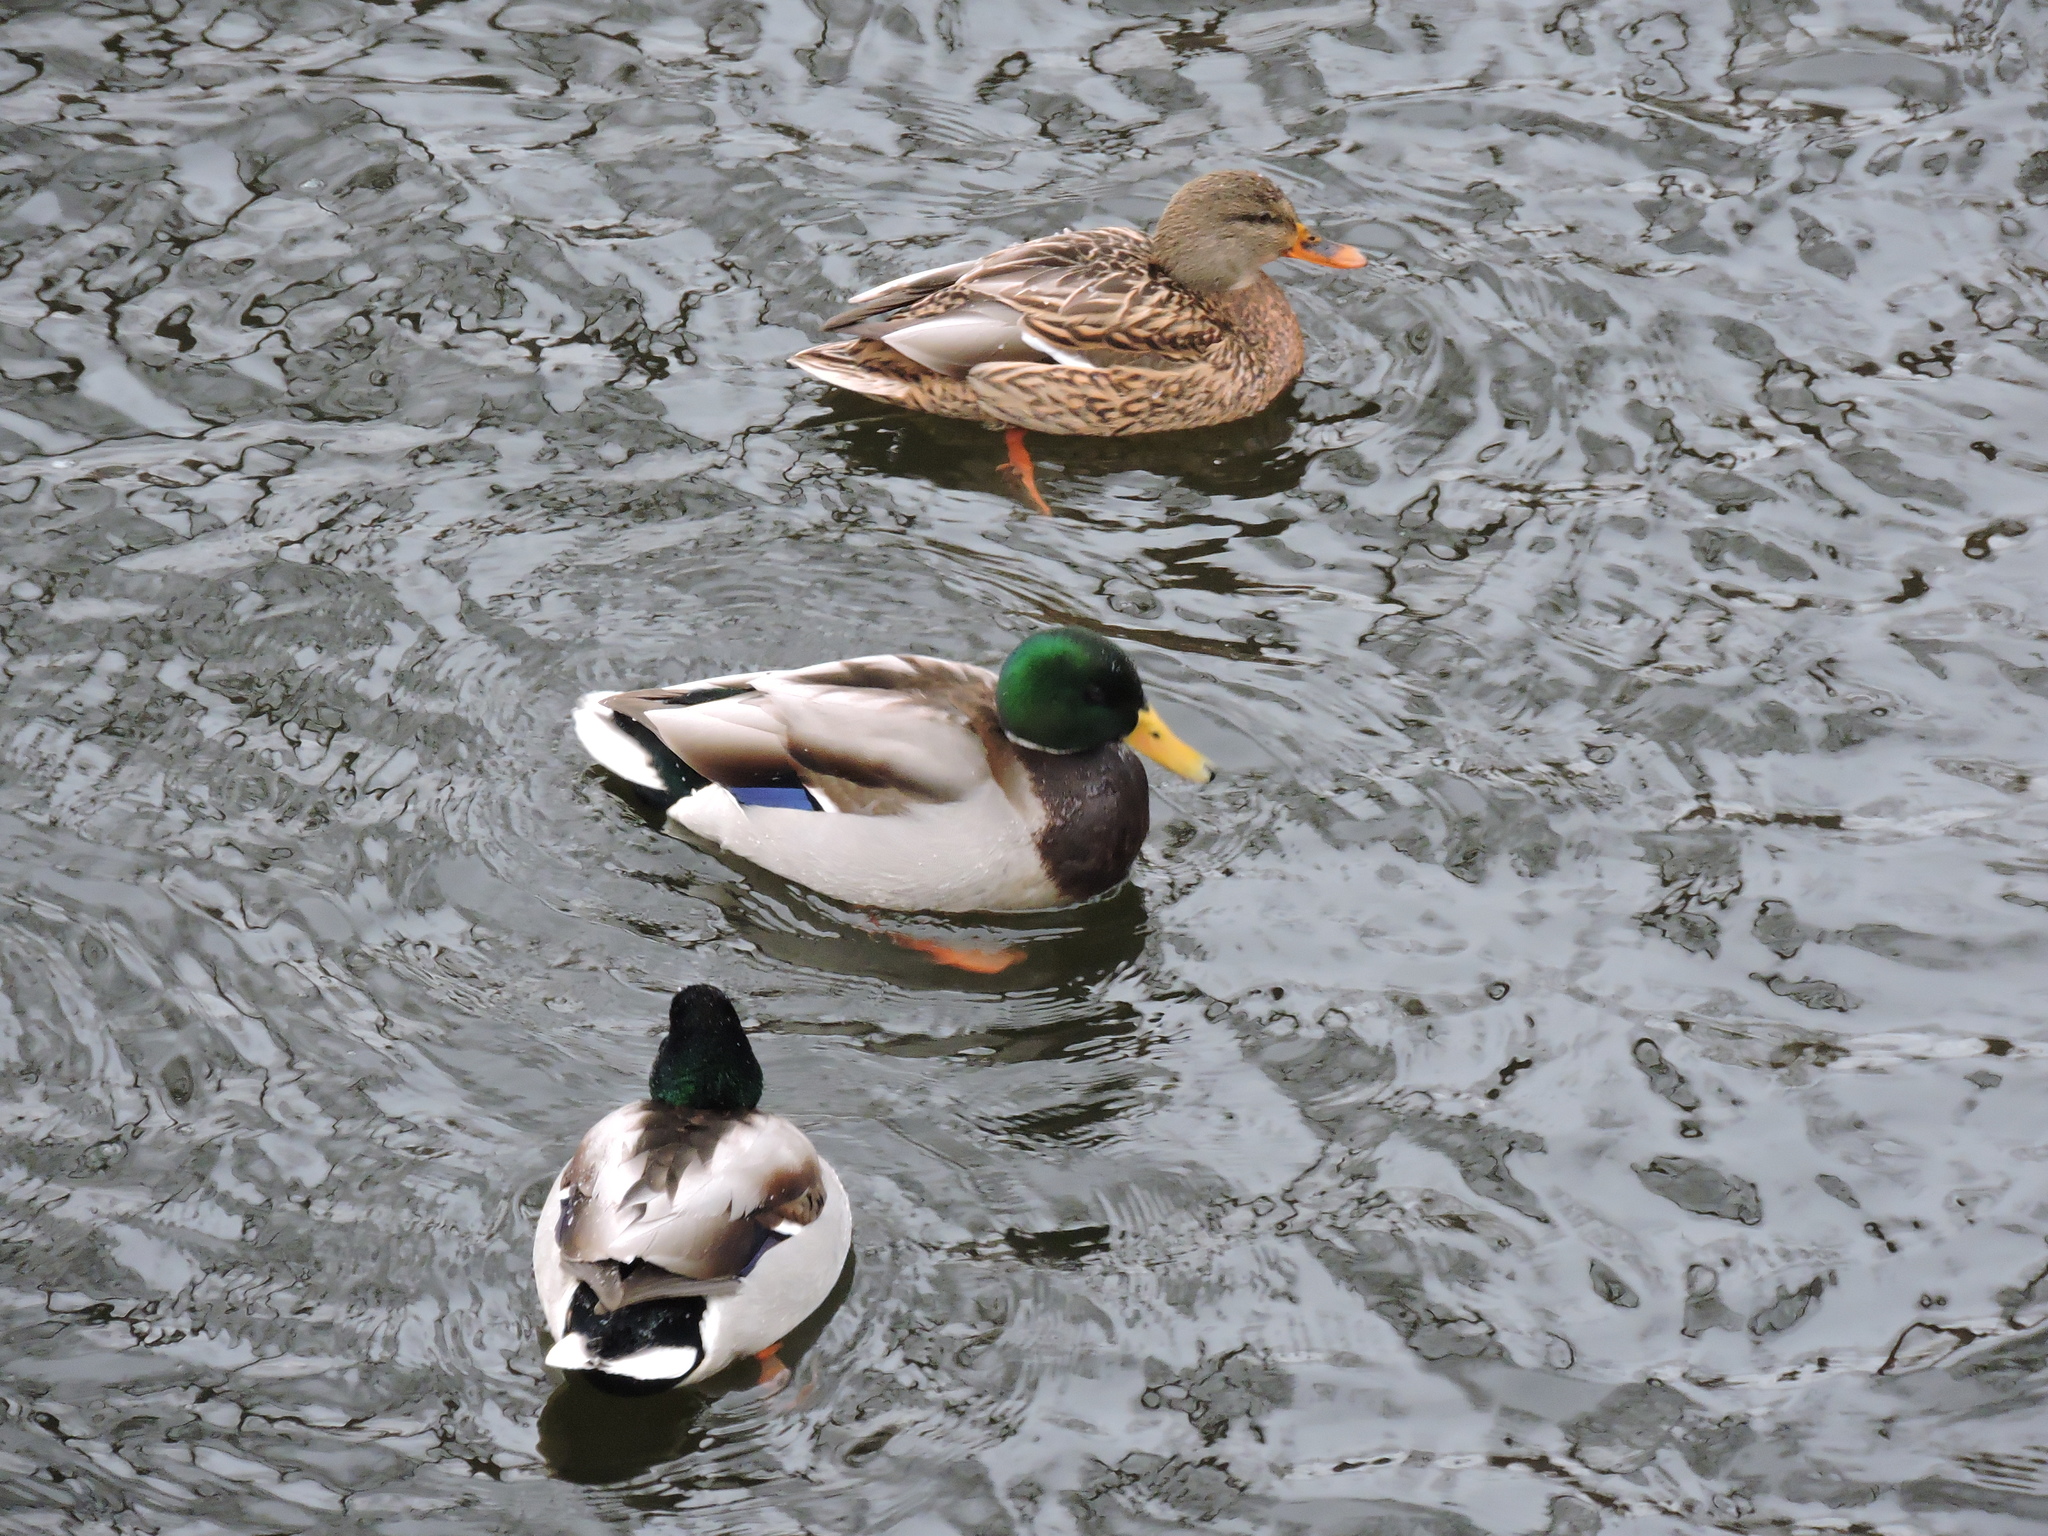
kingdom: Animalia
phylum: Chordata
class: Aves
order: Anseriformes
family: Anatidae
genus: Anas
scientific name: Anas platyrhynchos
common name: Mallard
